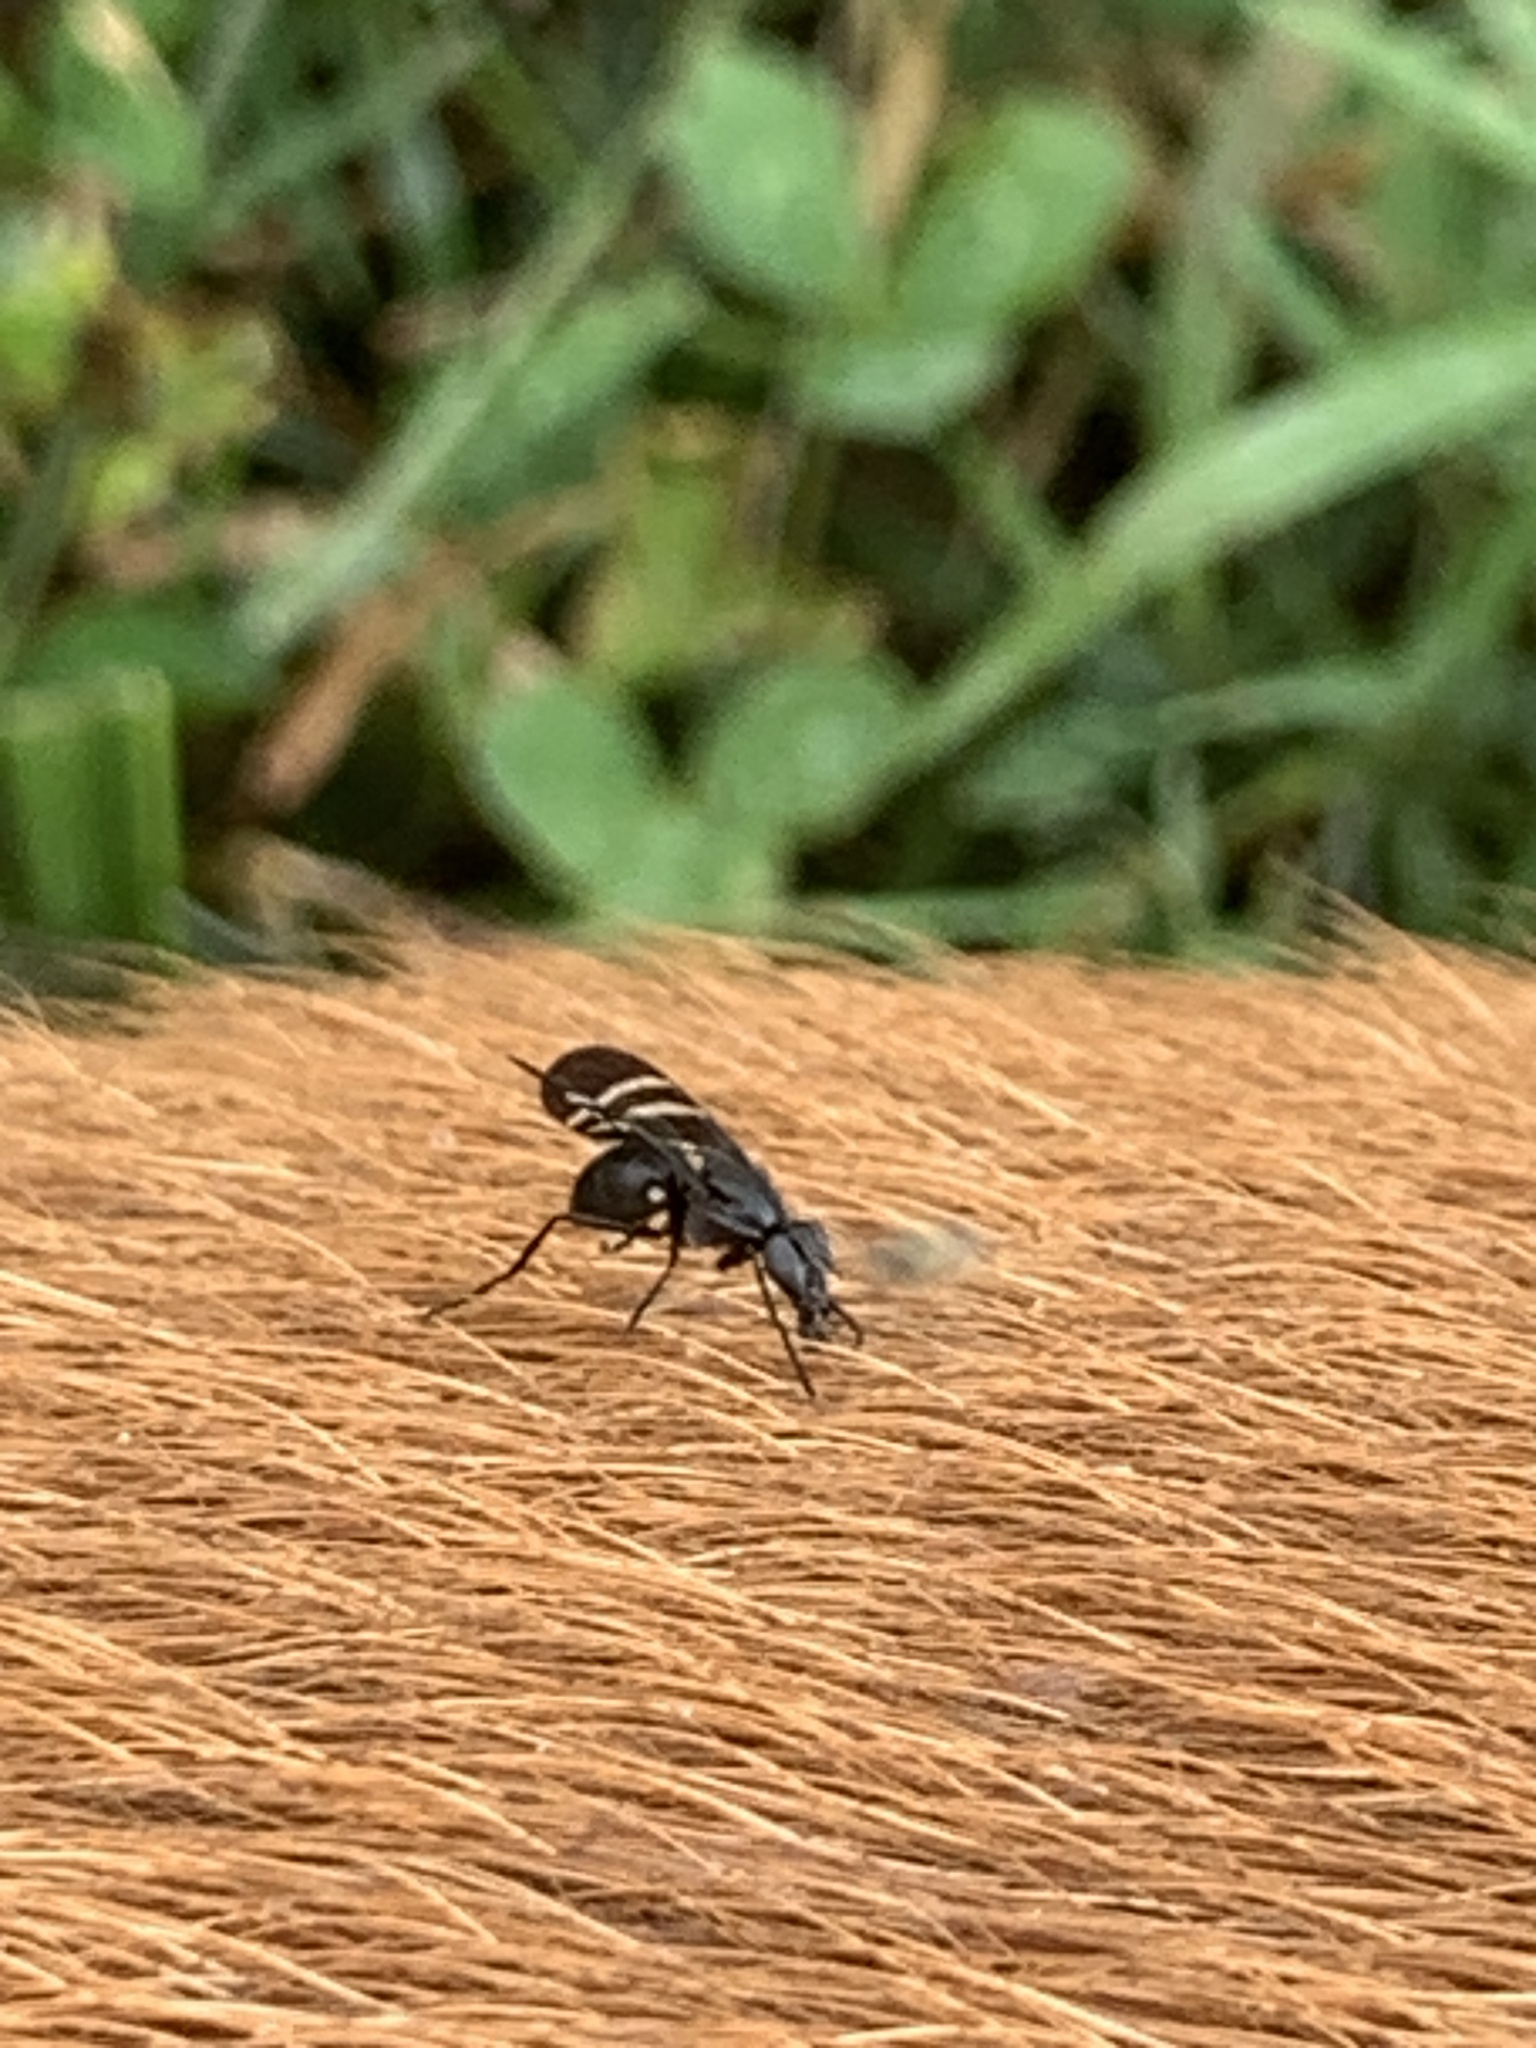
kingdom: Animalia
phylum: Arthropoda
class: Insecta
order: Diptera
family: Ulidiidae
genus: Tritoxa
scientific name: Tritoxa flexa
